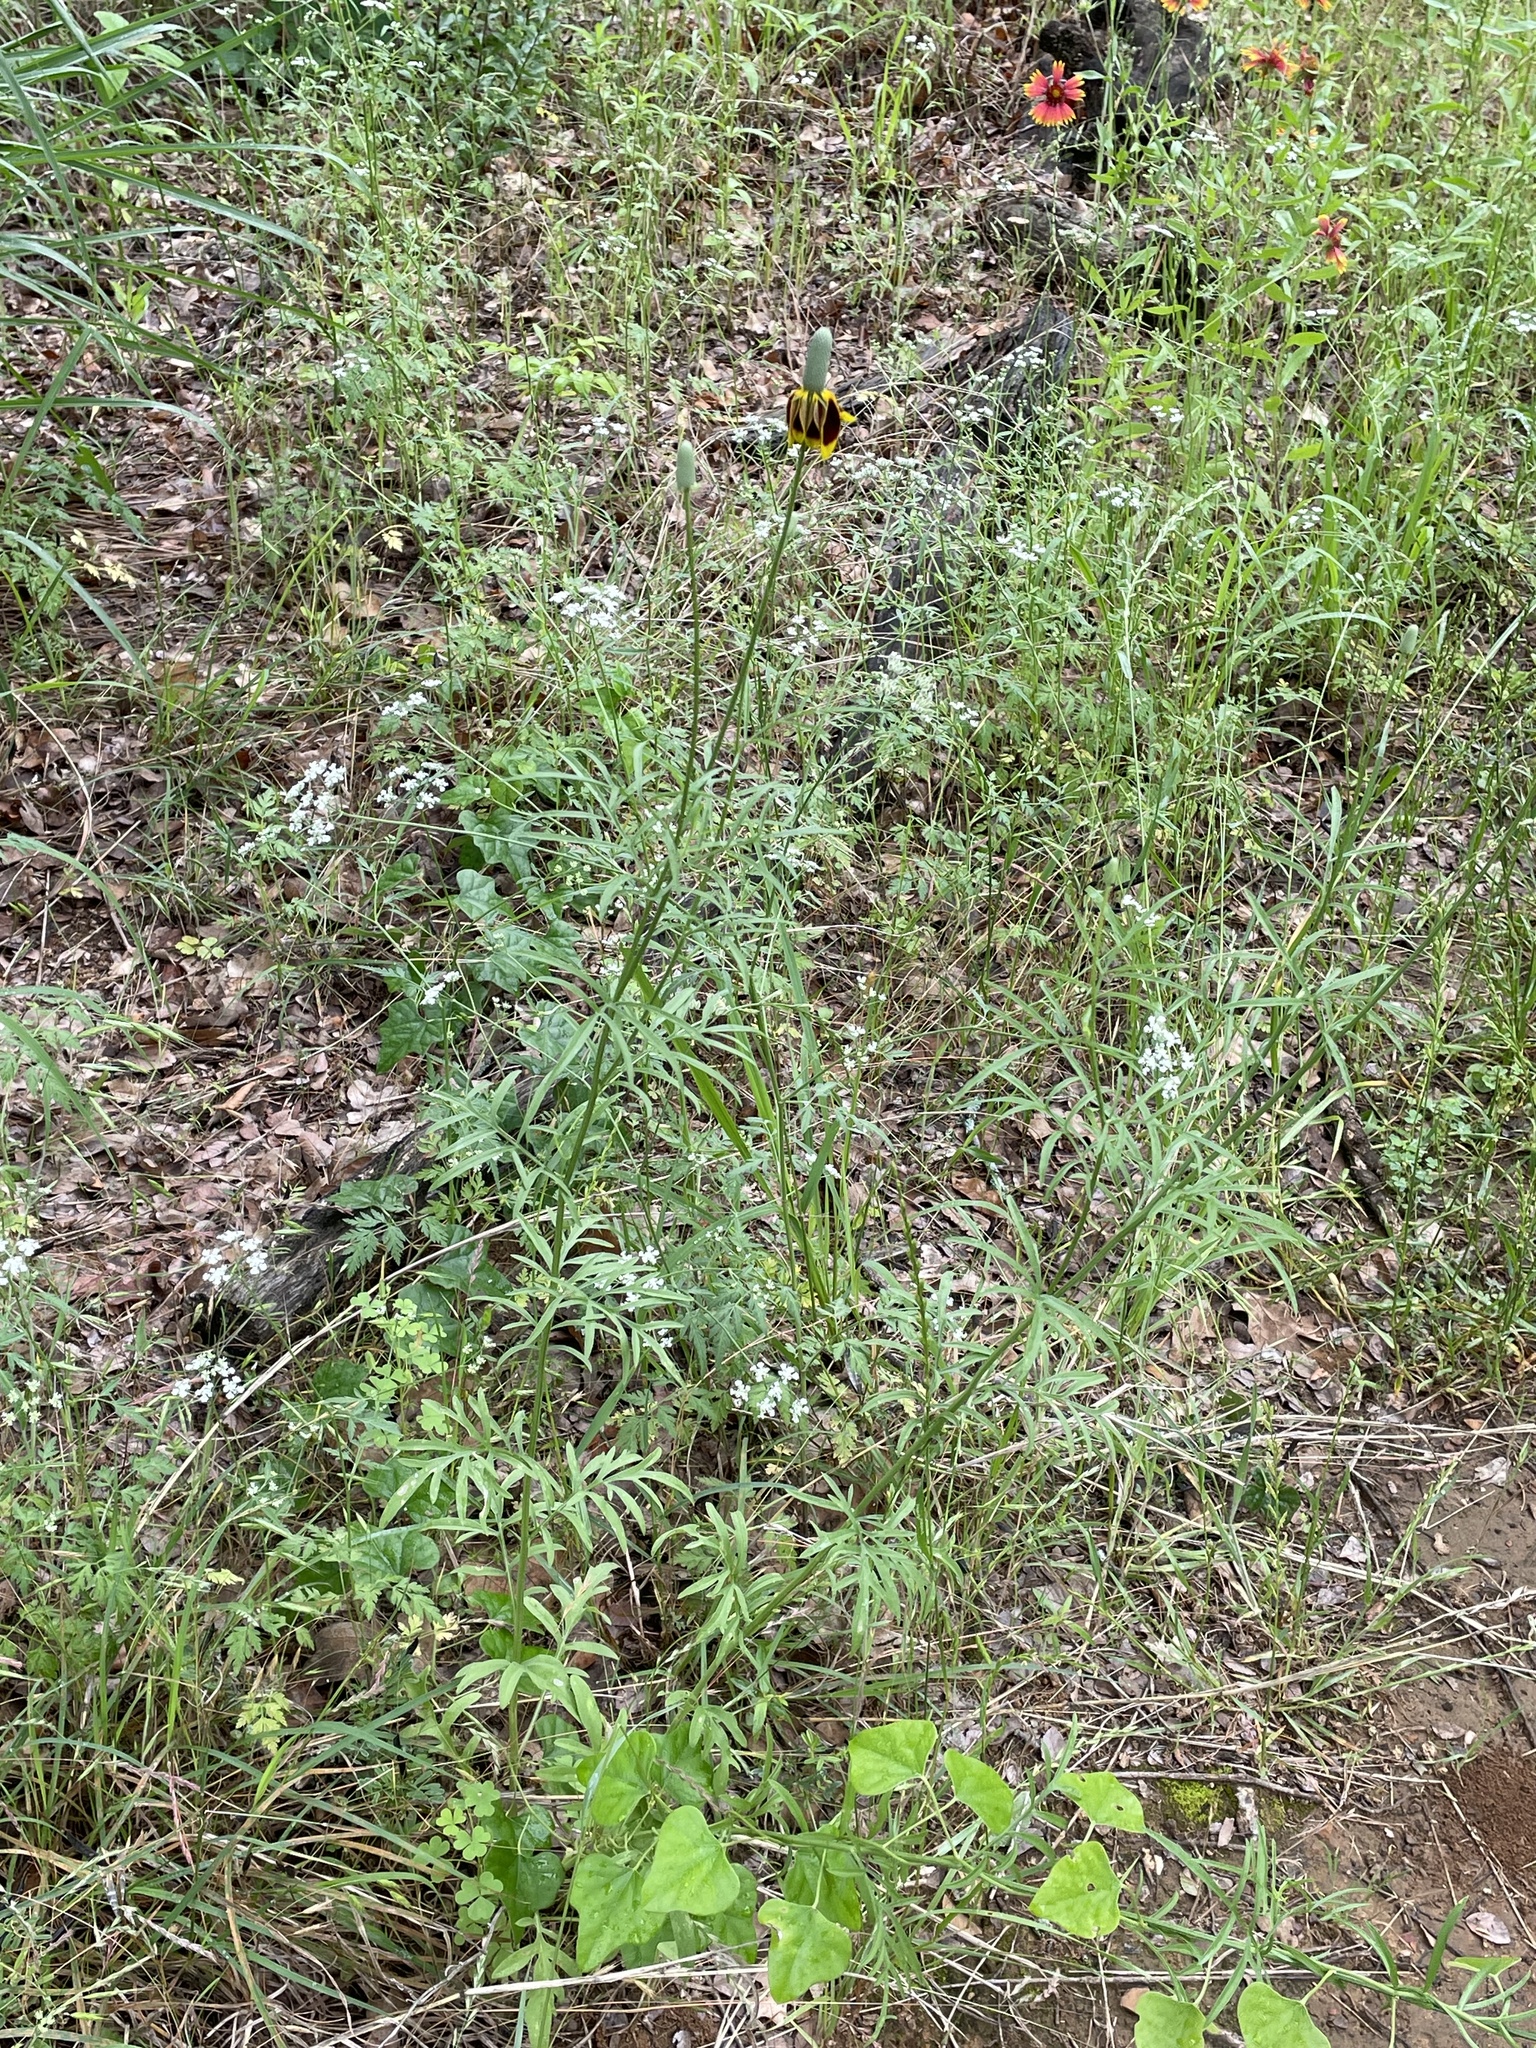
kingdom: Plantae
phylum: Tracheophyta
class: Magnoliopsida
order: Asterales
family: Asteraceae
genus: Ratibida
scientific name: Ratibida columnifera
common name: Prairie coneflower
